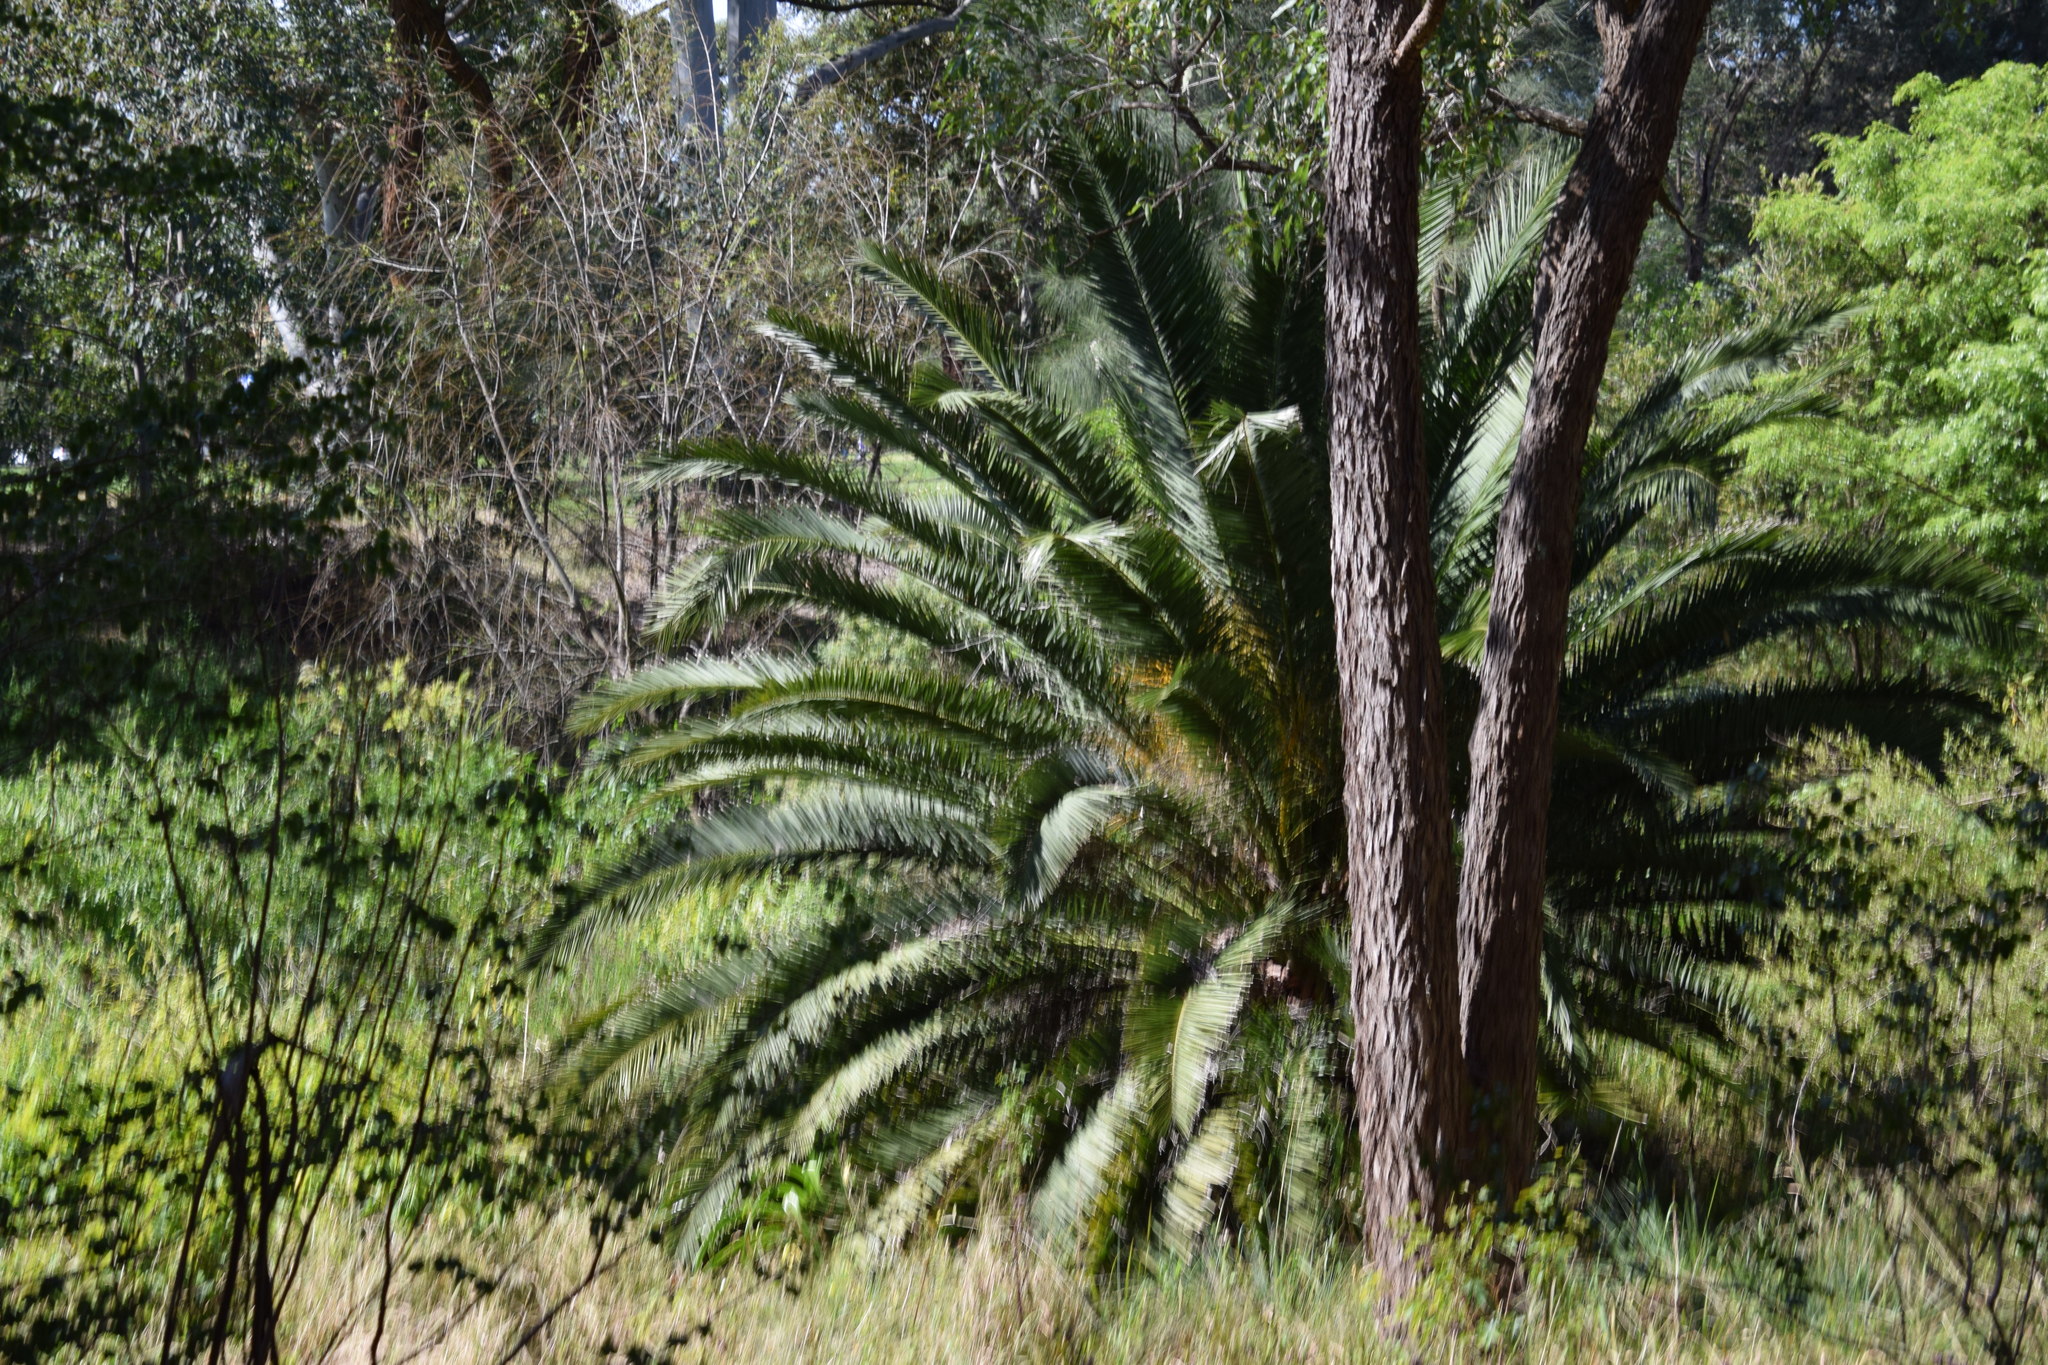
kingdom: Plantae
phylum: Tracheophyta
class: Liliopsida
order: Arecales
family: Arecaceae
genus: Phoenix
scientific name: Phoenix canariensis
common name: Canary island date palm
